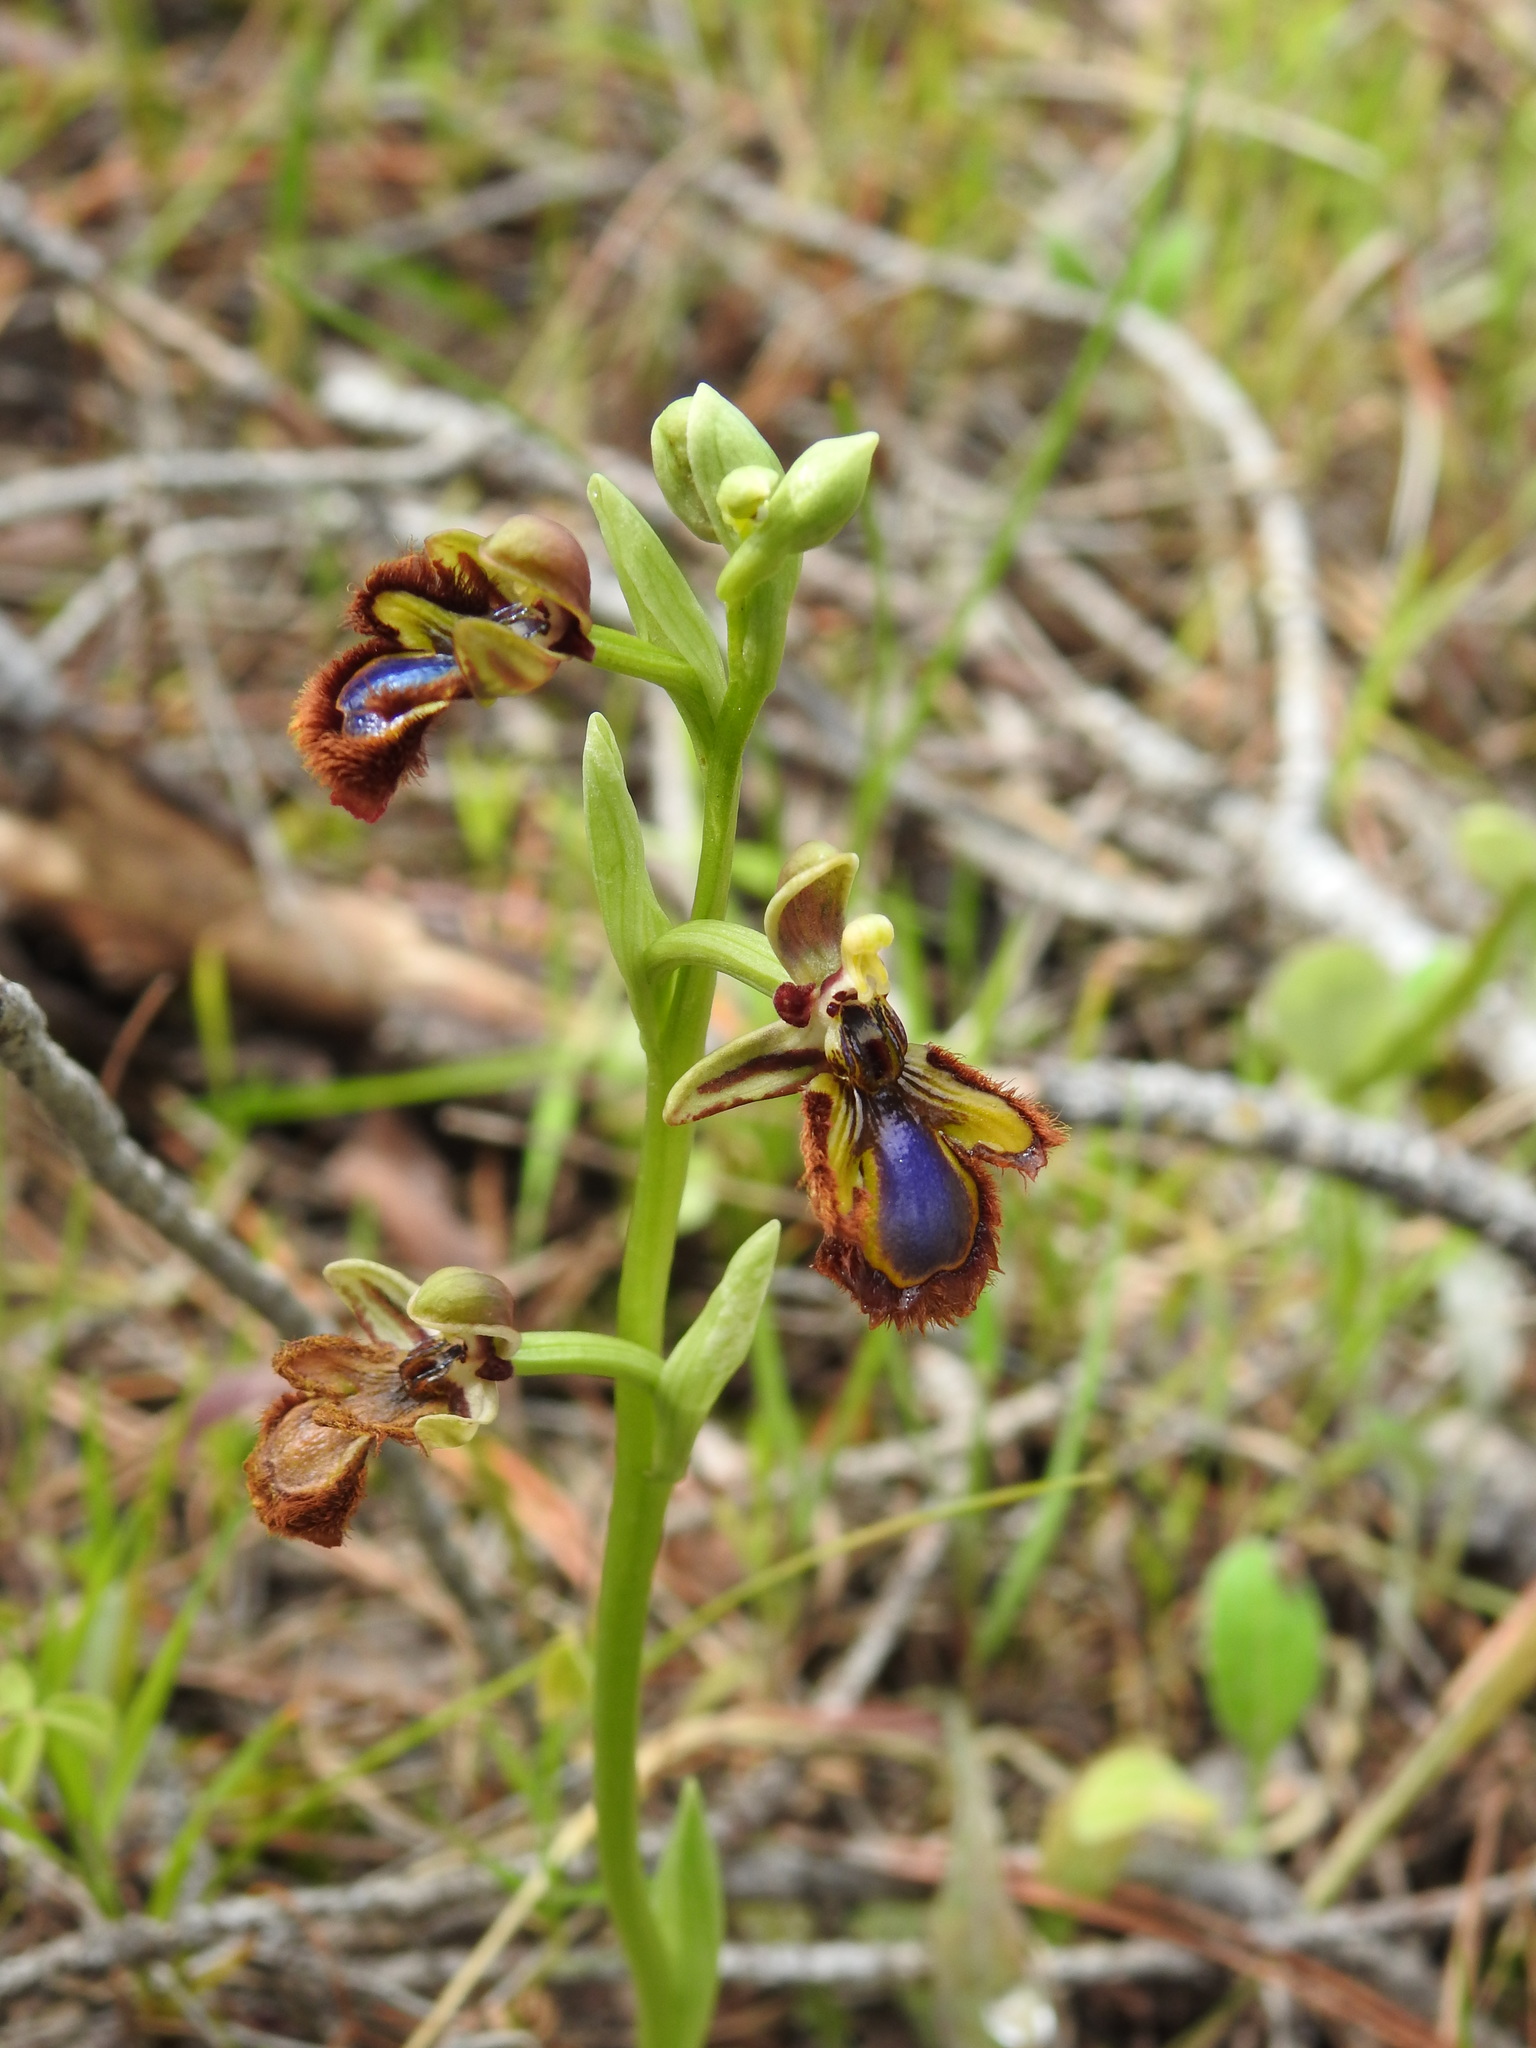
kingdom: Plantae
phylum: Tracheophyta
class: Liliopsida
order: Asparagales
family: Orchidaceae
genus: Ophrys
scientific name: Ophrys speculum
